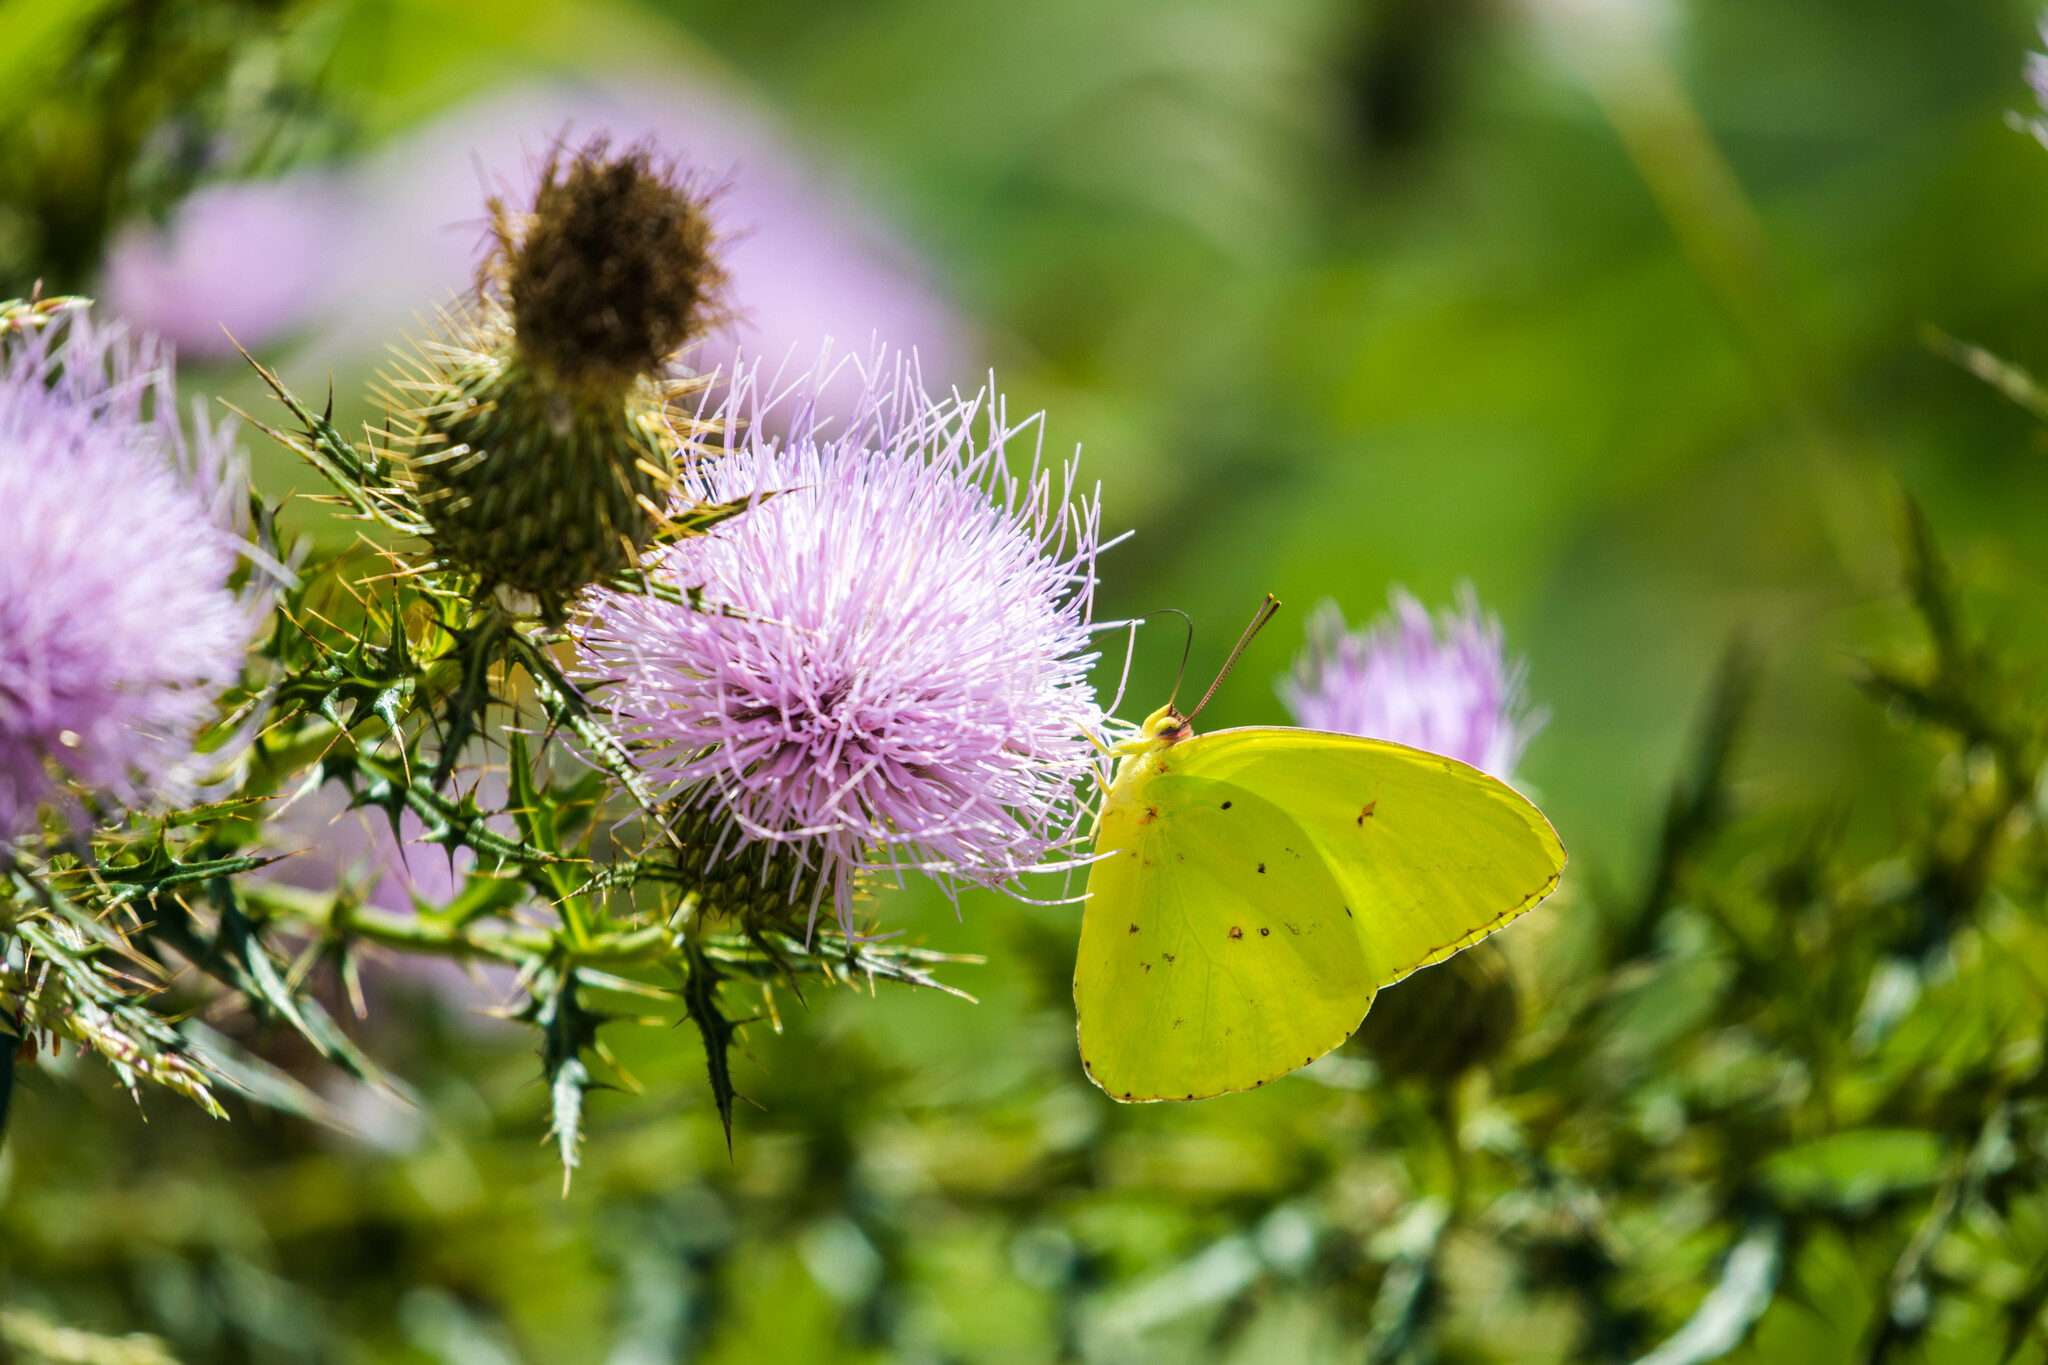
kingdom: Animalia
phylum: Arthropoda
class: Insecta
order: Lepidoptera
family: Pieridae
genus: Phoebis
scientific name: Phoebis sennae
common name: Cloudless sulphur
